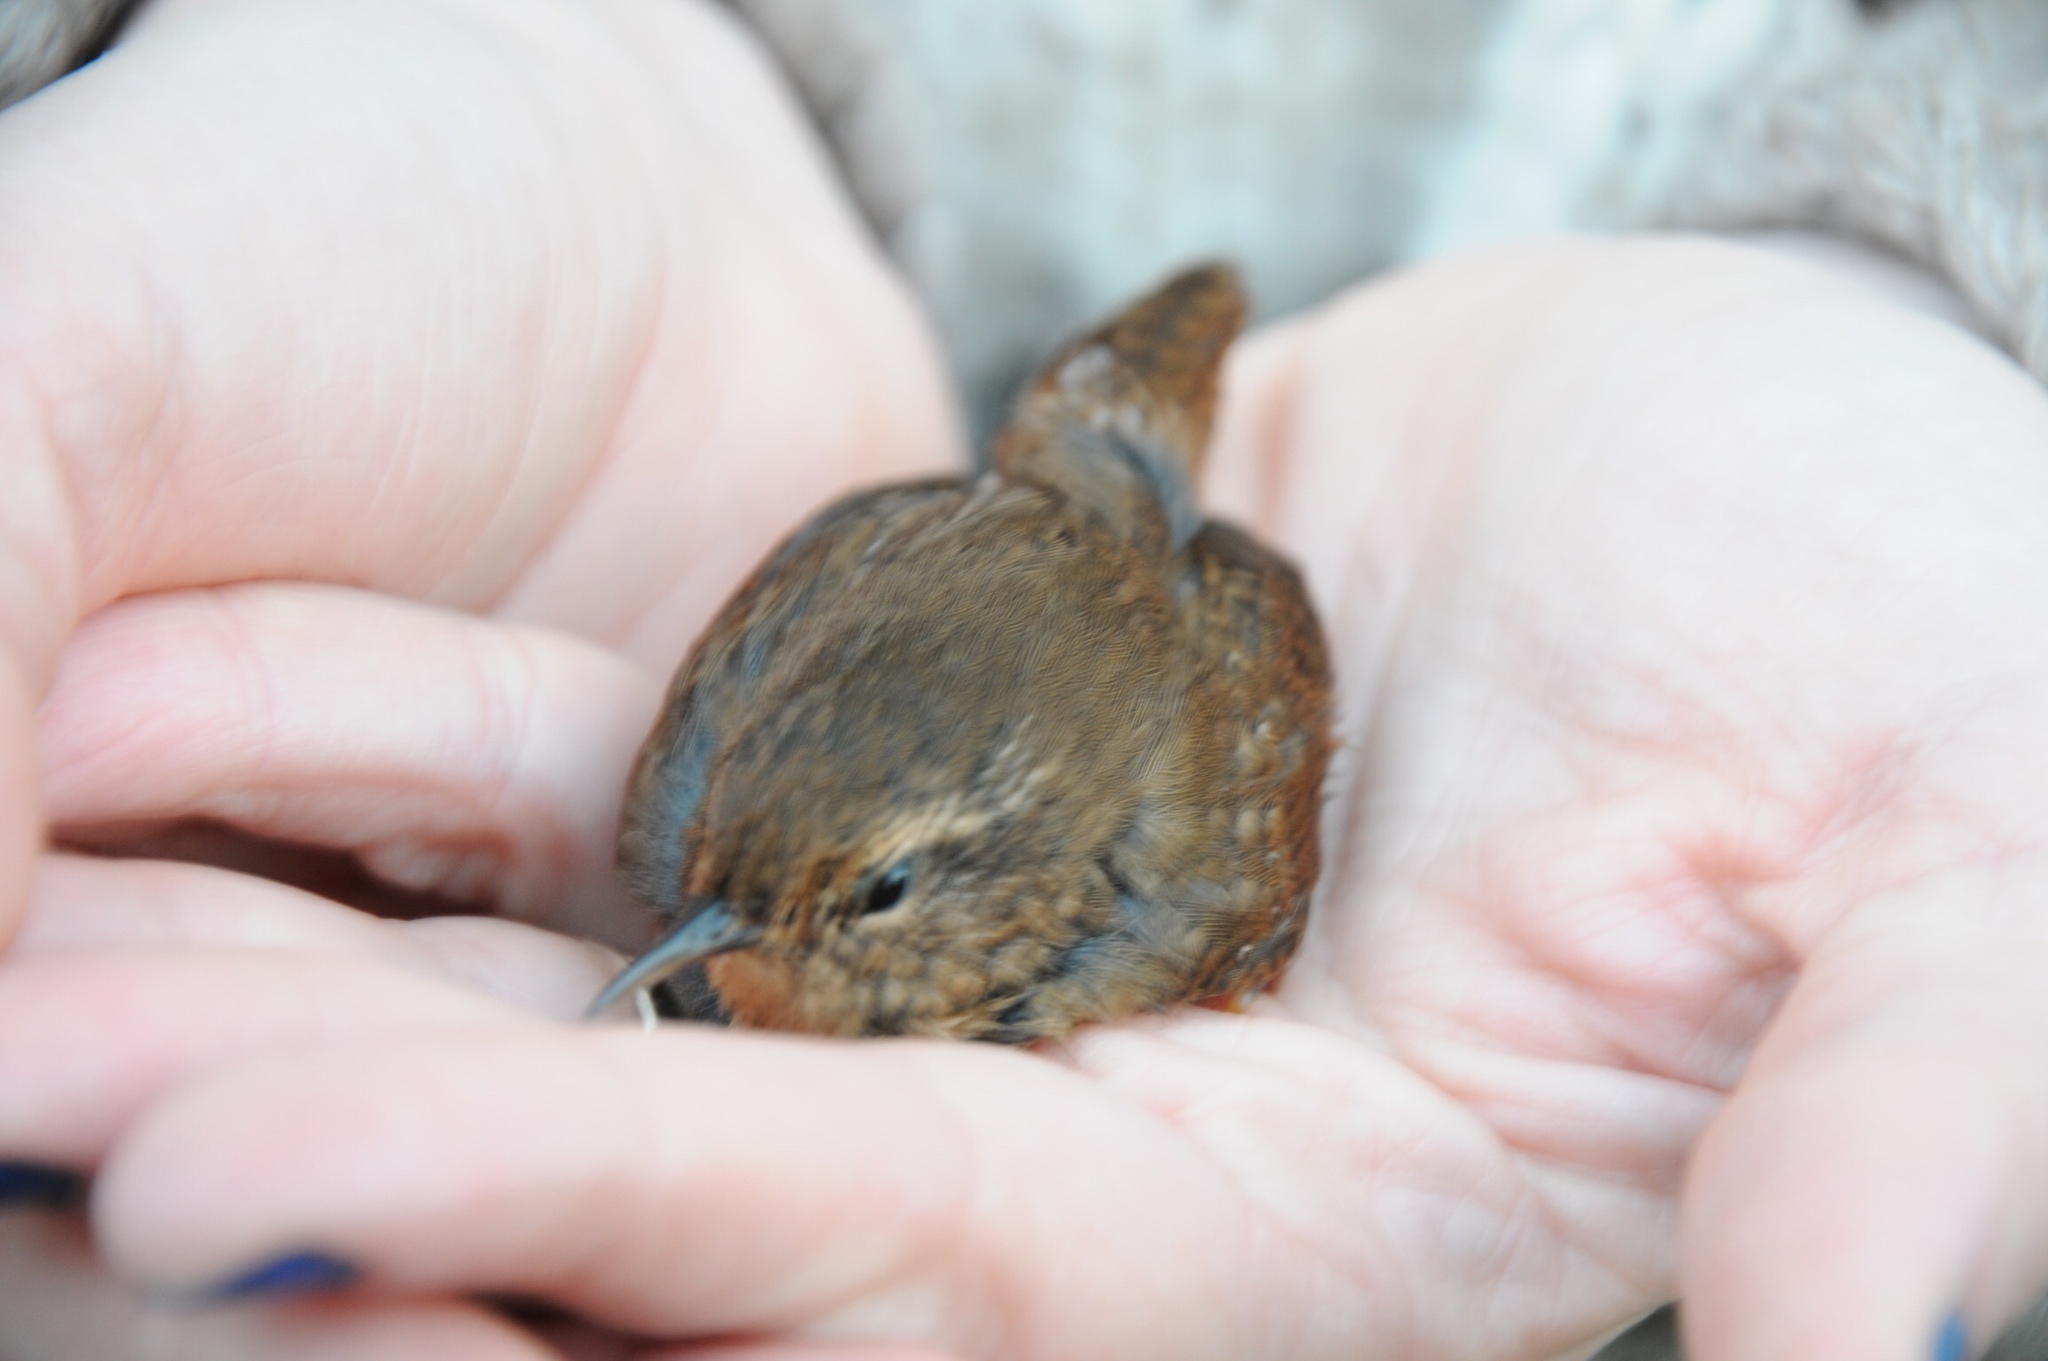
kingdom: Animalia
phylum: Chordata
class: Aves
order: Passeriformes
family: Troglodytidae
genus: Troglodytes
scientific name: Troglodytes pacificus
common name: Pacific wren
